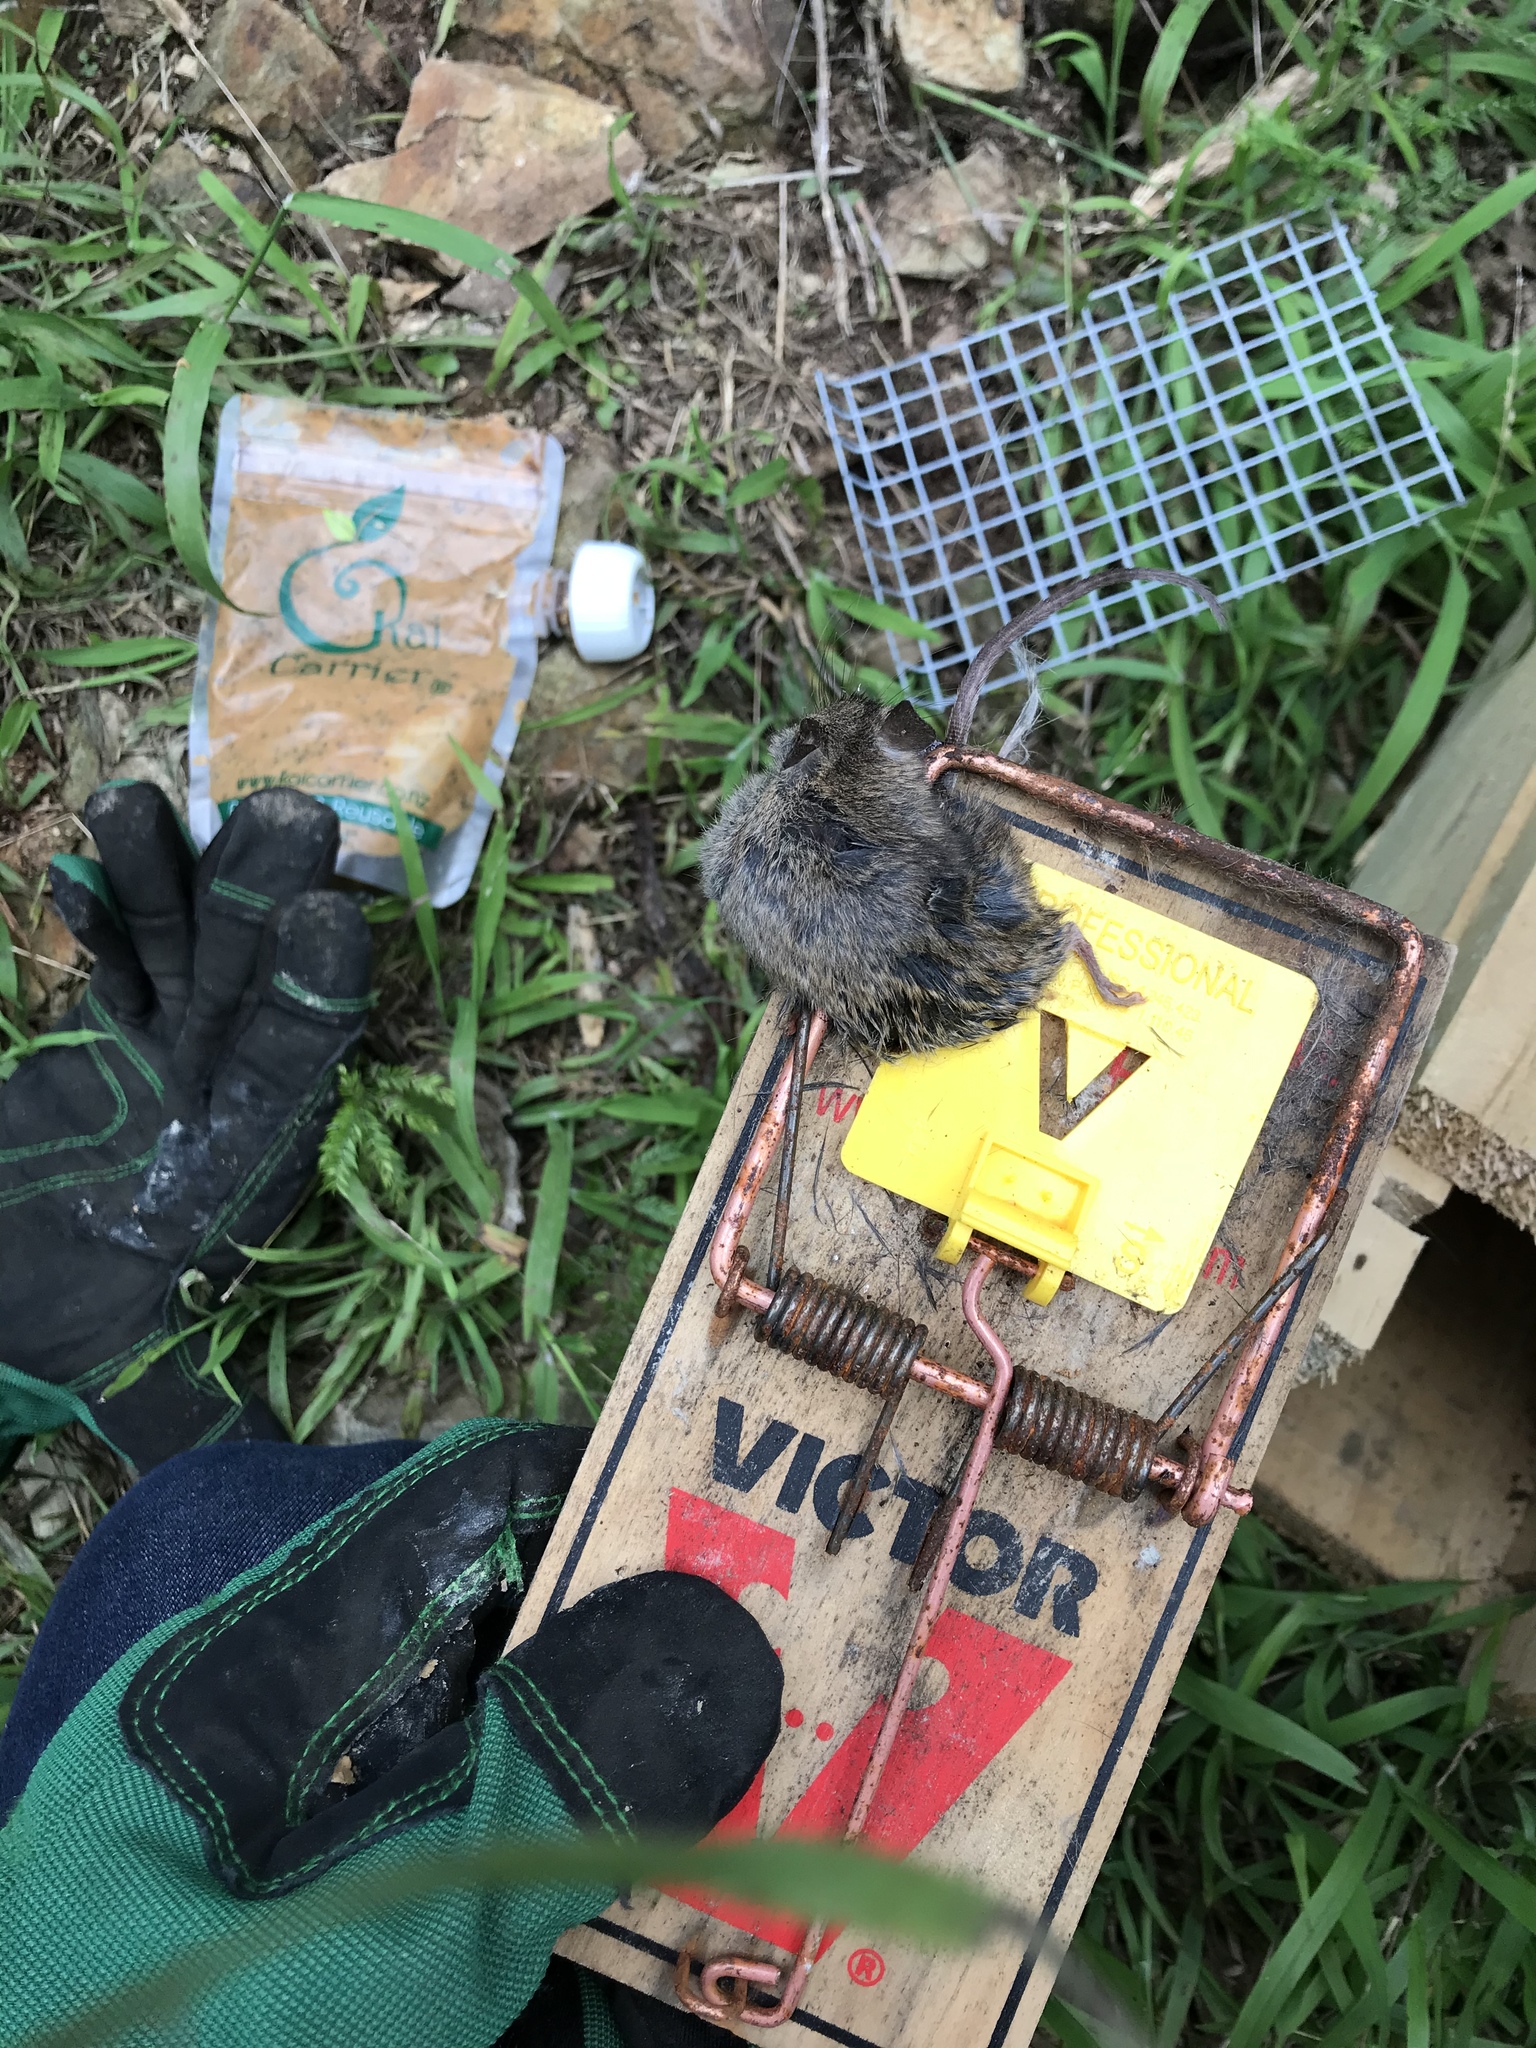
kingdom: Animalia
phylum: Chordata
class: Mammalia
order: Rodentia
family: Muridae
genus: Mus
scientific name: Mus musculus
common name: House mouse
